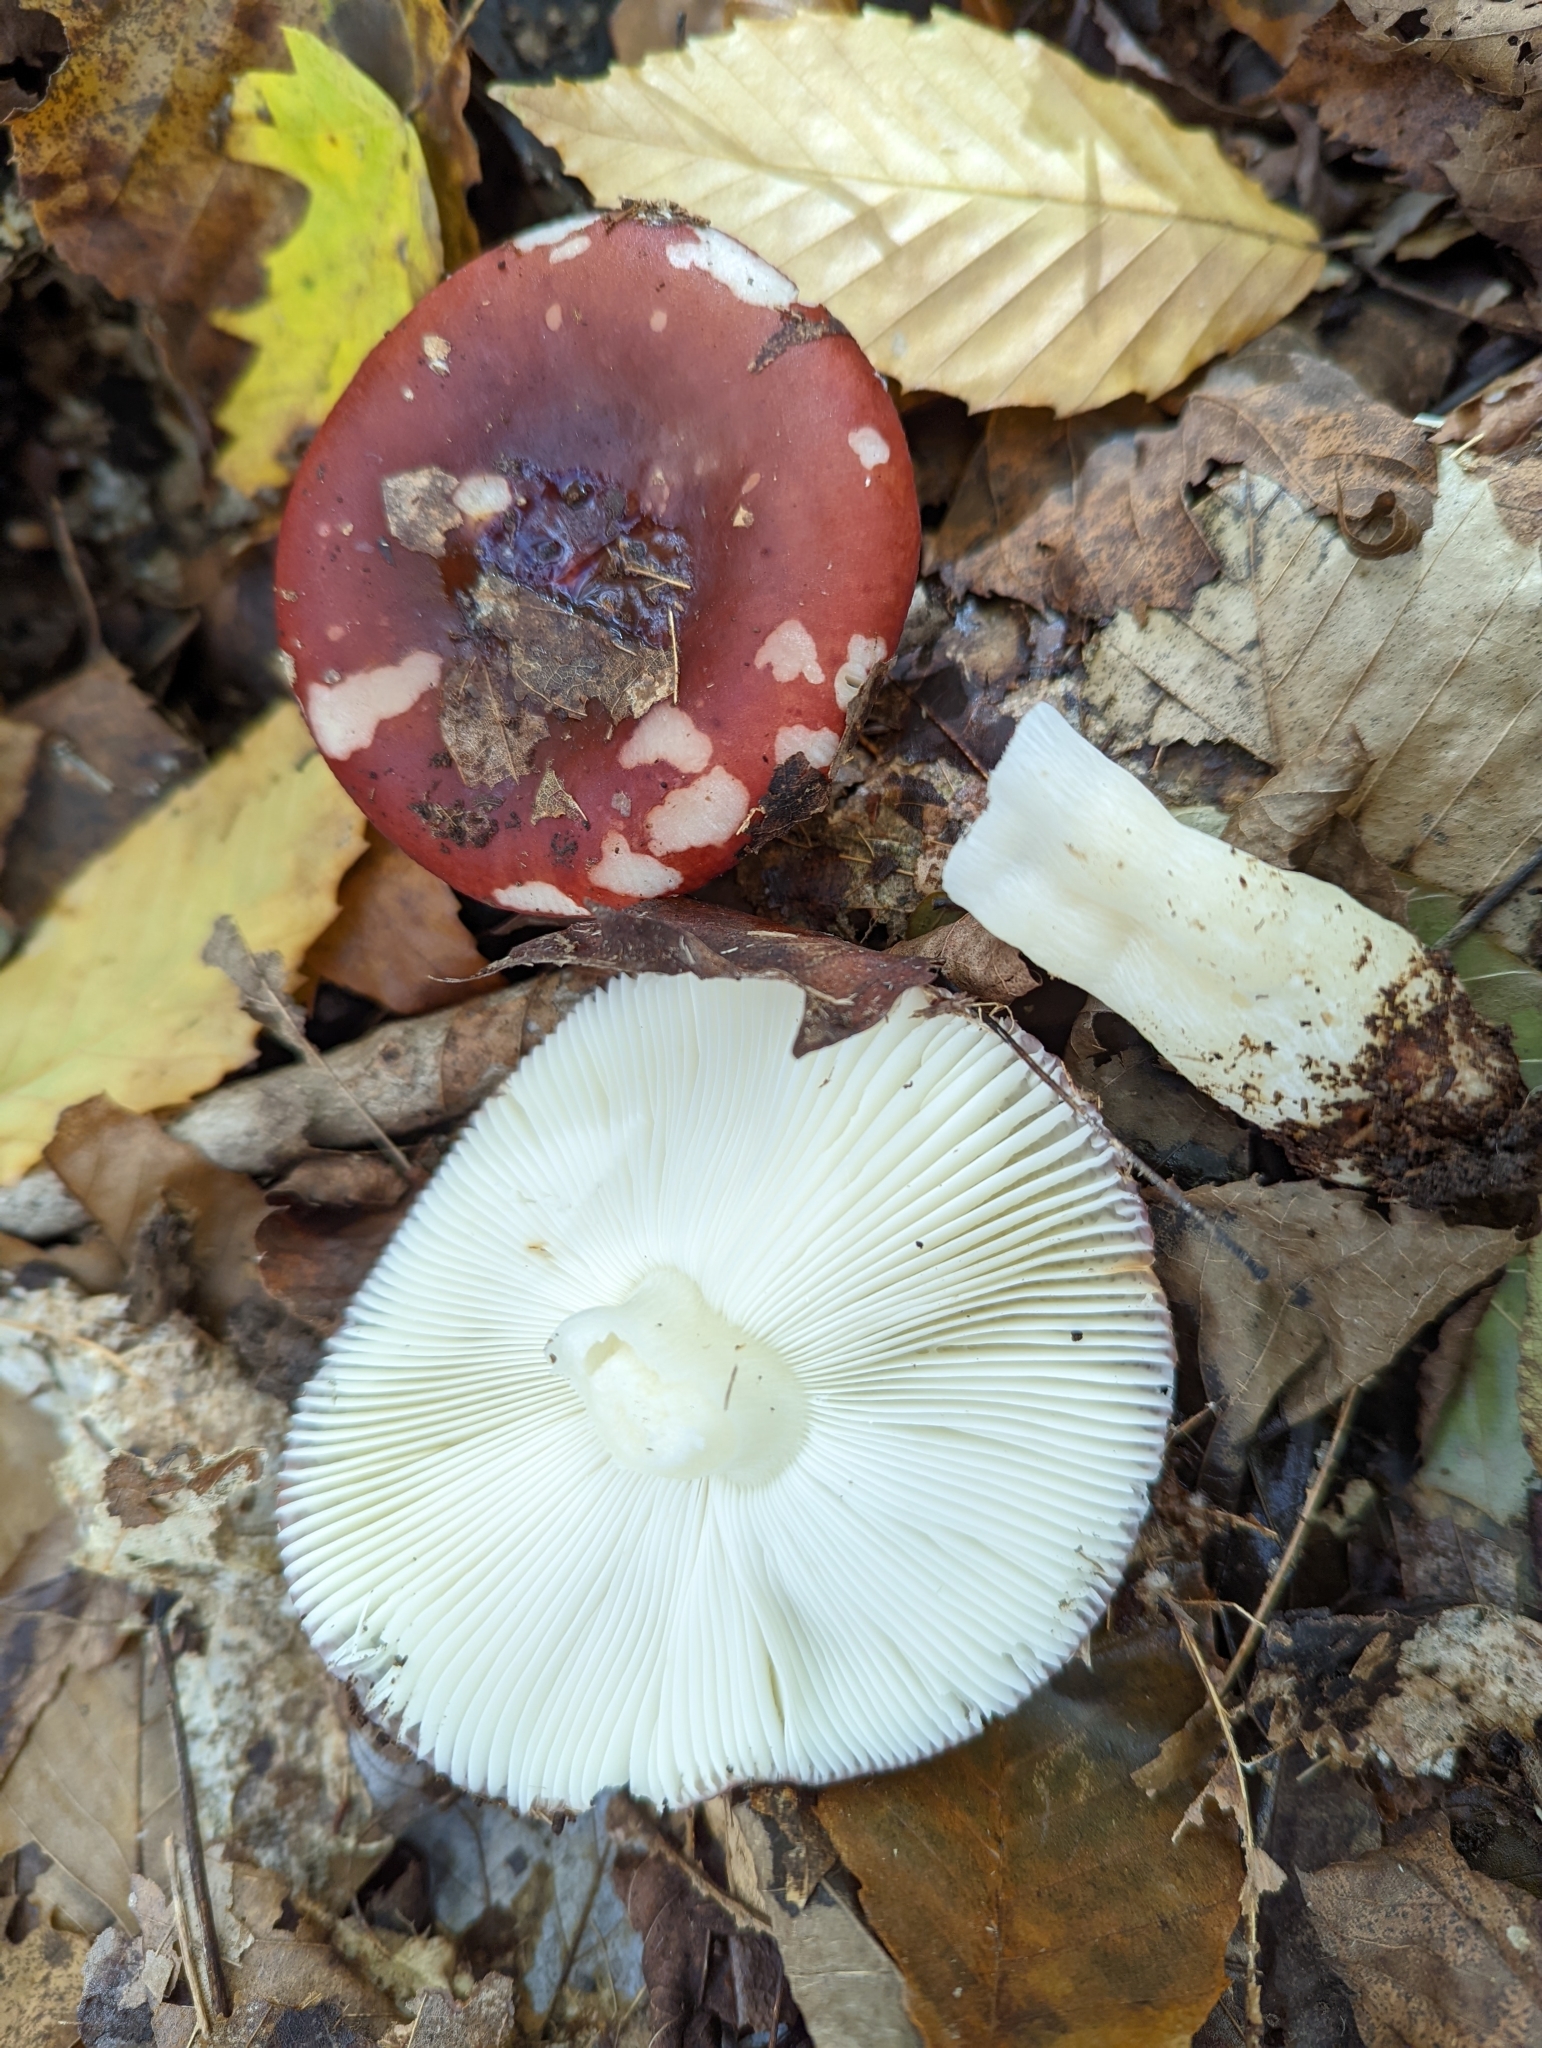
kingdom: Fungi
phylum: Basidiomycota
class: Agaricomycetes
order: Russulales
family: Russulaceae
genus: Russula
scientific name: Russula vinacea
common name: Blackish-red russula
